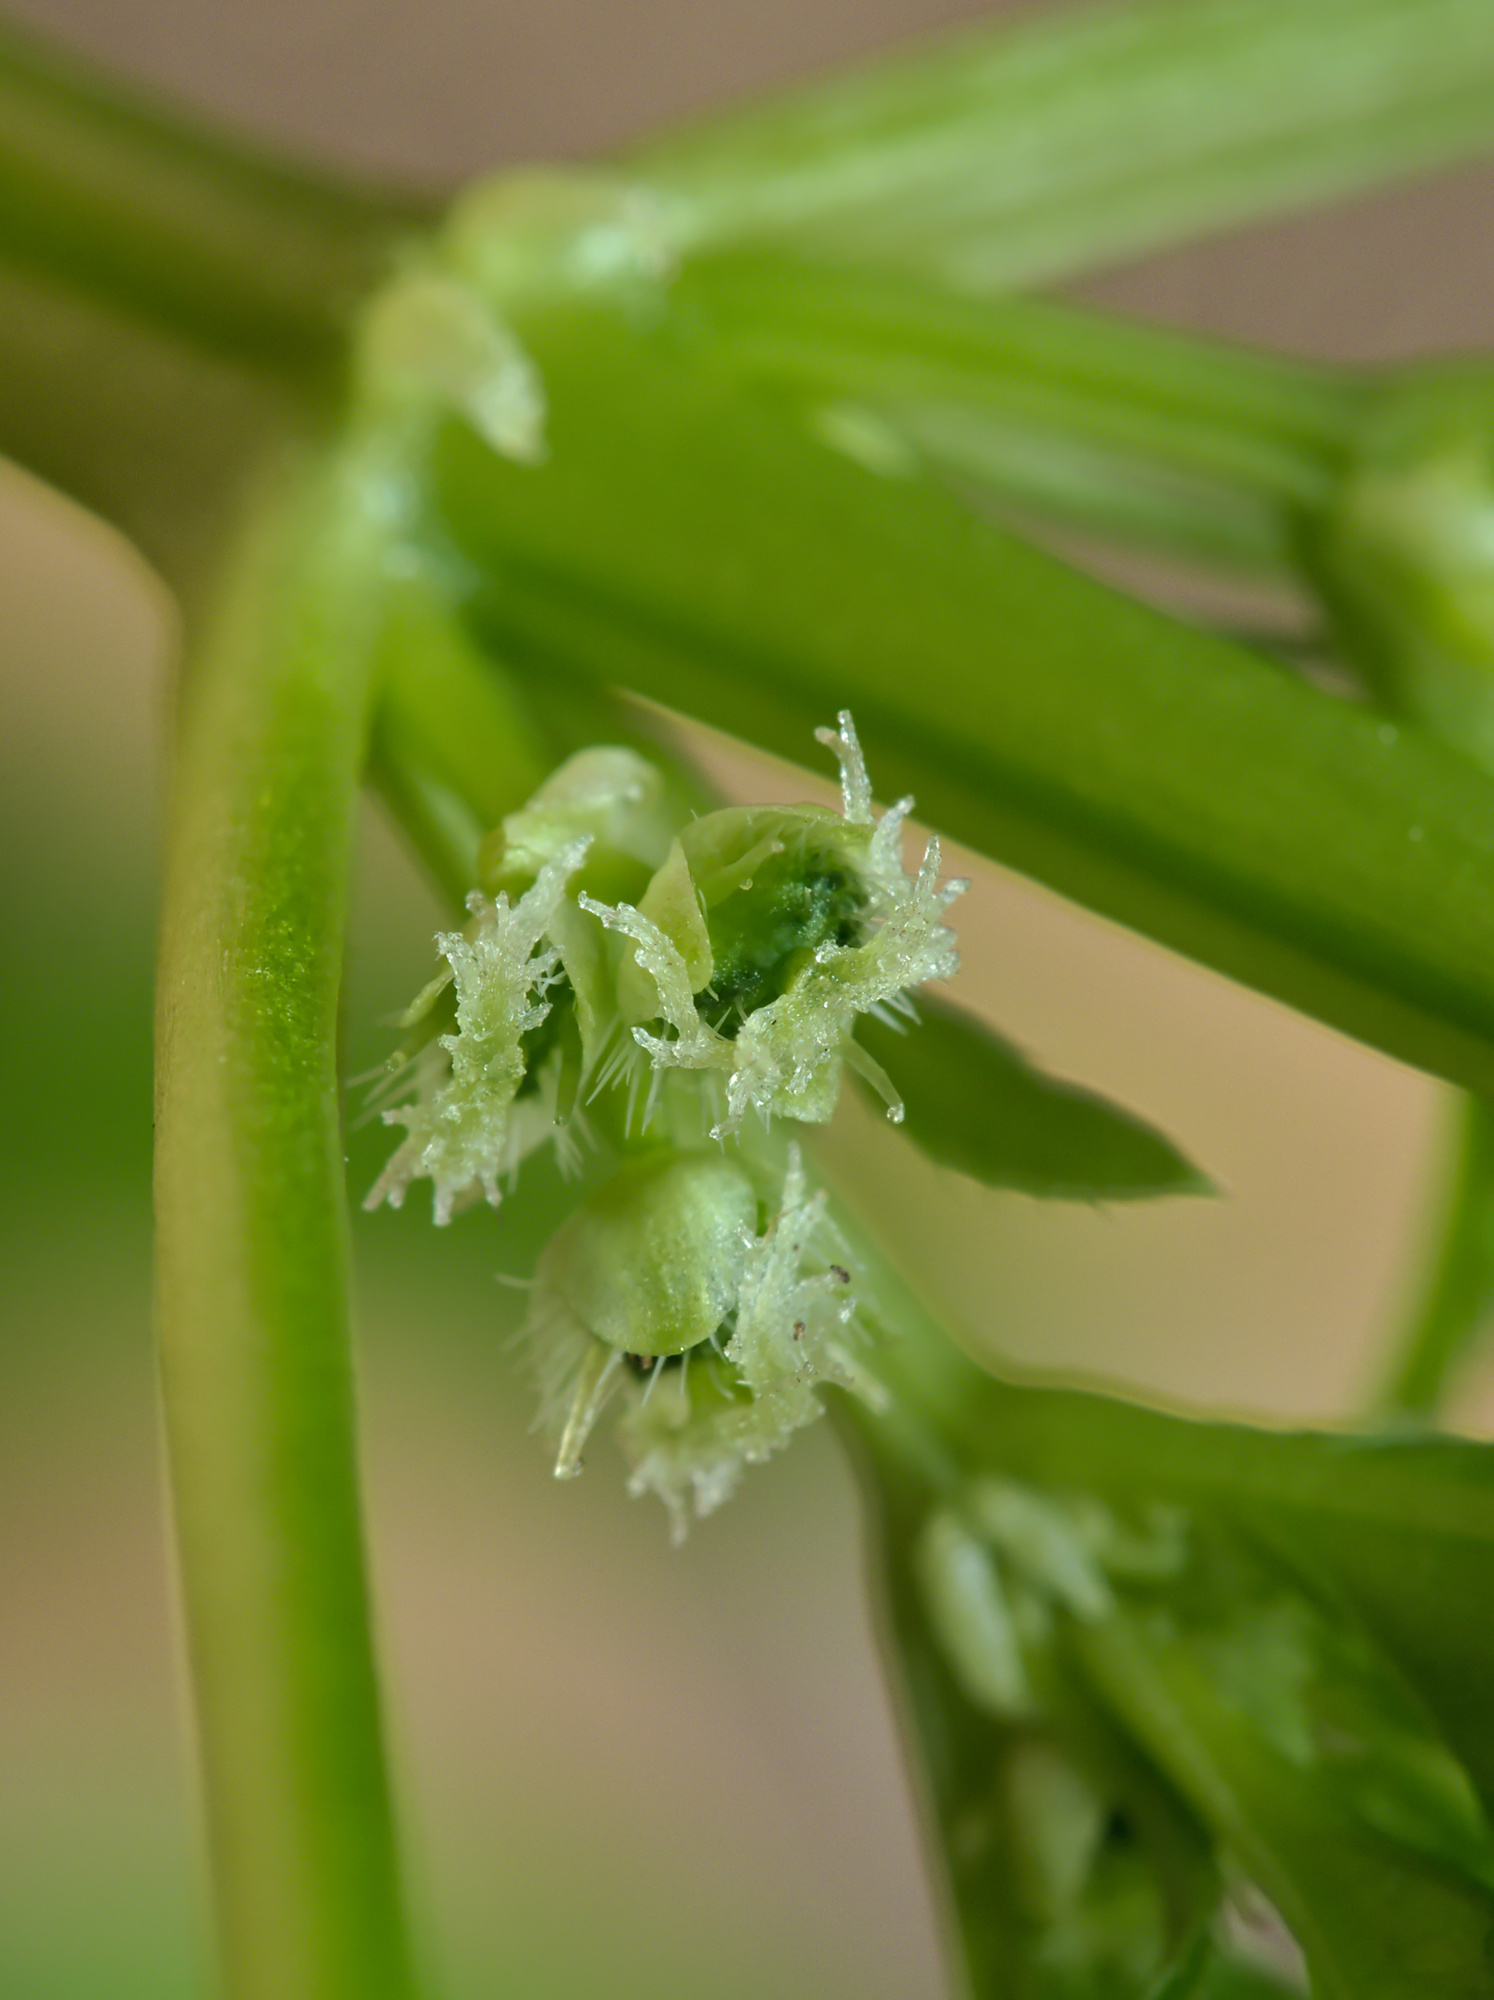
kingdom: Plantae
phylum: Tracheophyta
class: Magnoliopsida
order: Malpighiales
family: Euphorbiaceae
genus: Mercurialis
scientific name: Mercurialis annua
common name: Annual mercury
